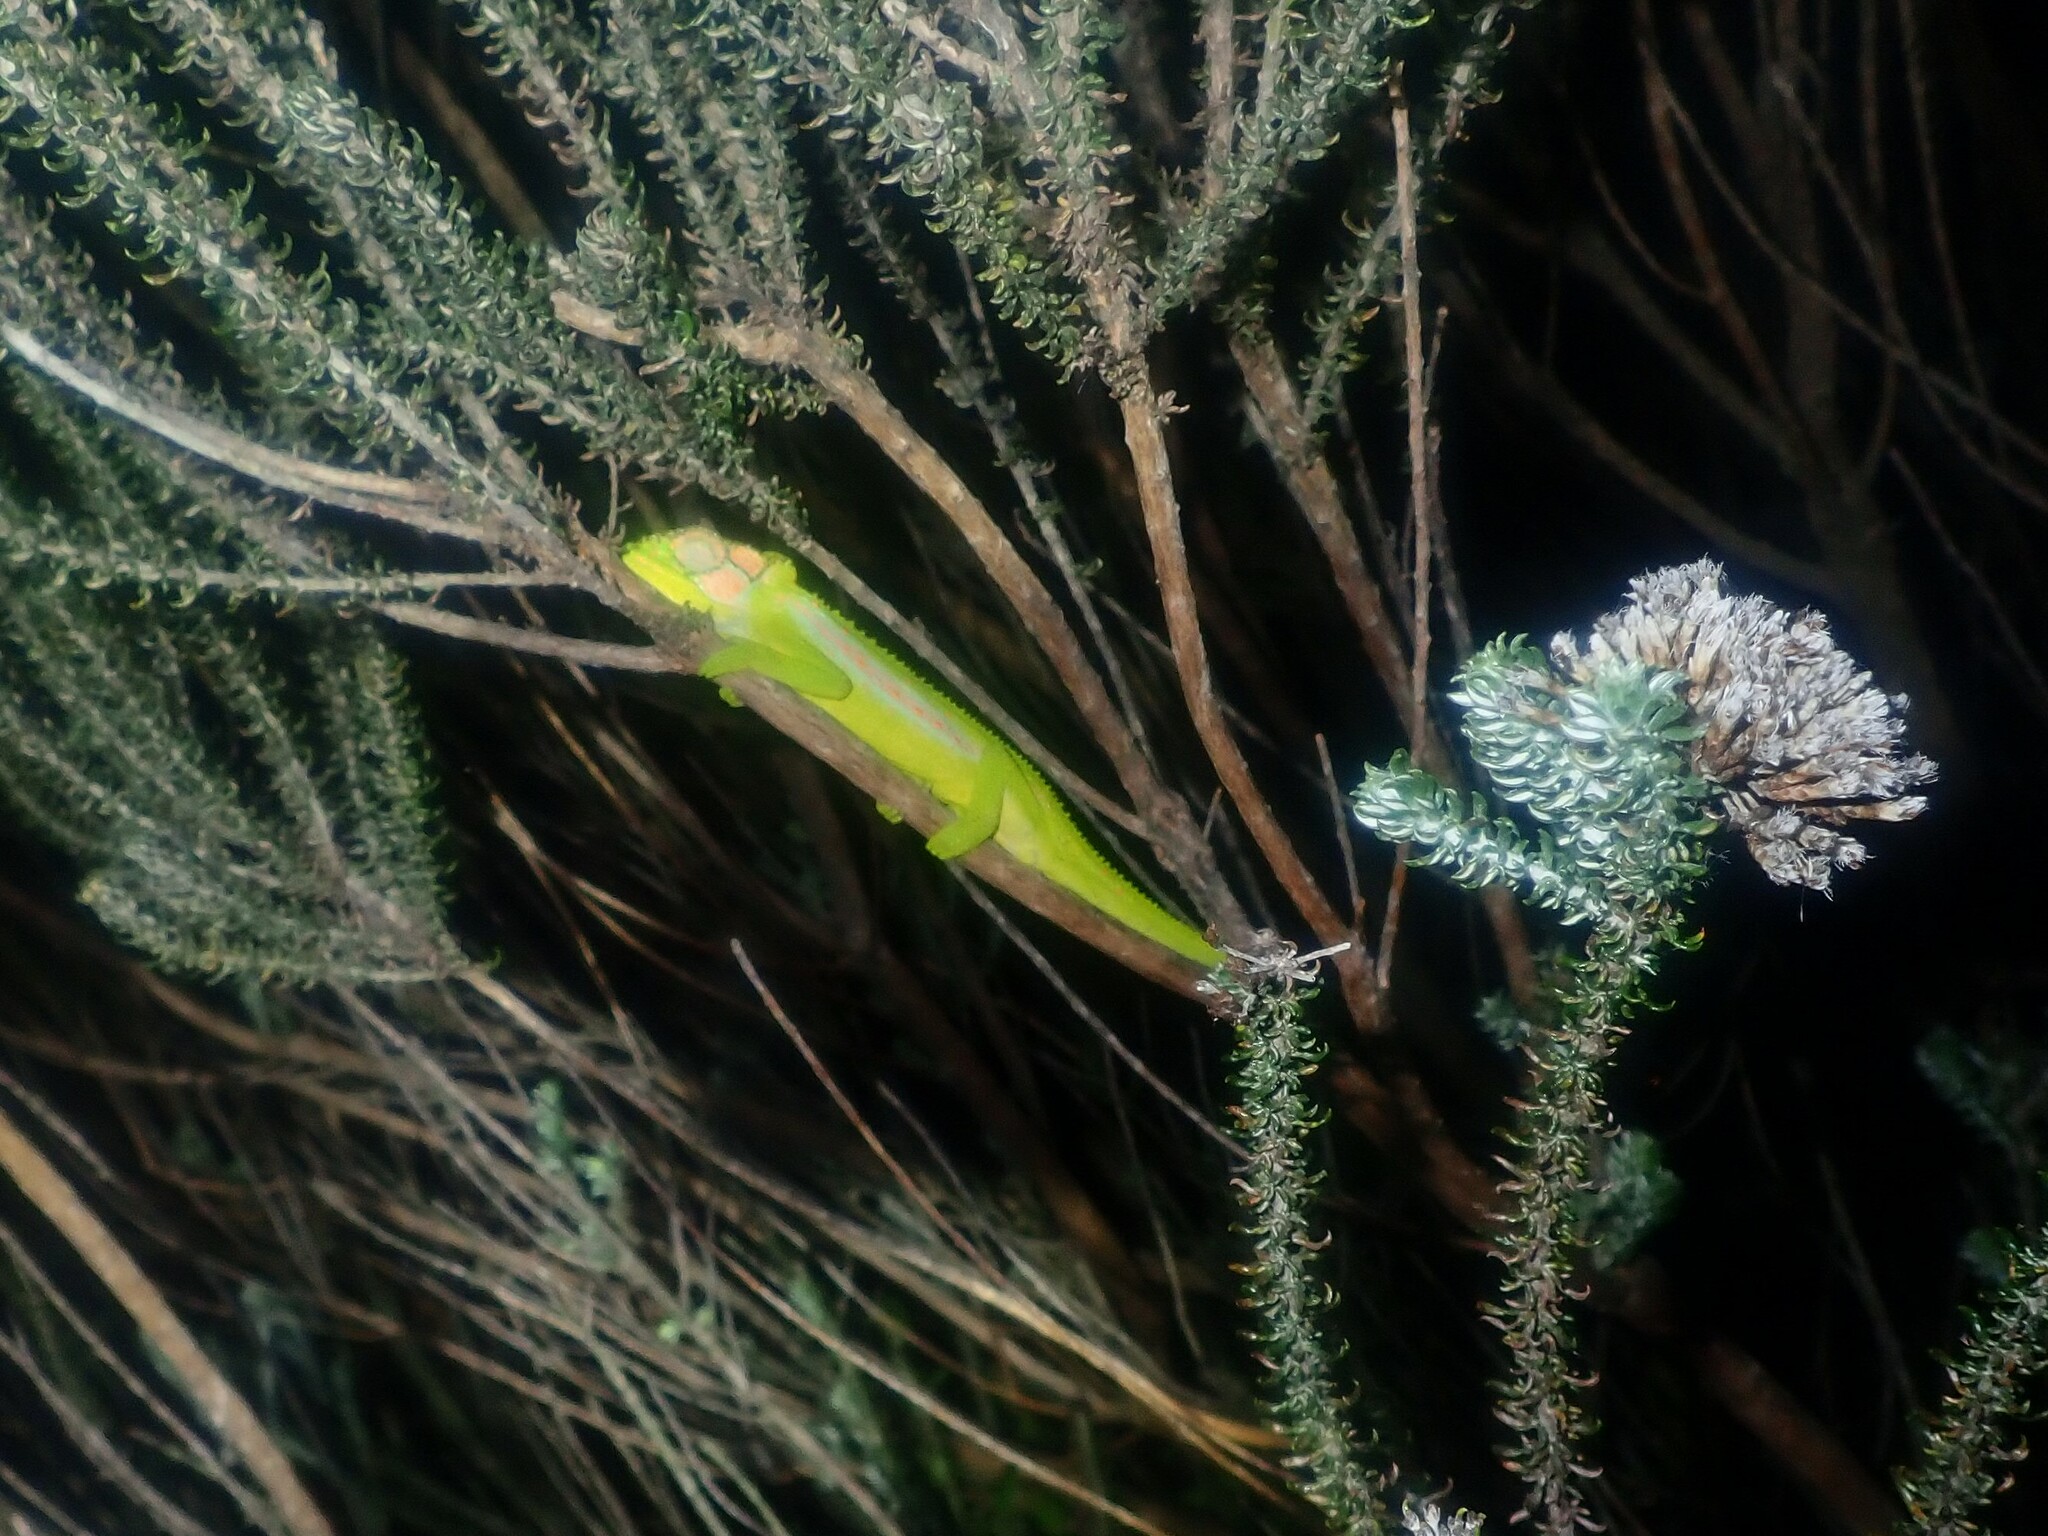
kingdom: Animalia
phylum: Chordata
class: Squamata
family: Chamaeleonidae
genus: Bradypodion
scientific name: Bradypodion pumilum
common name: Cape dwarf chameleon
